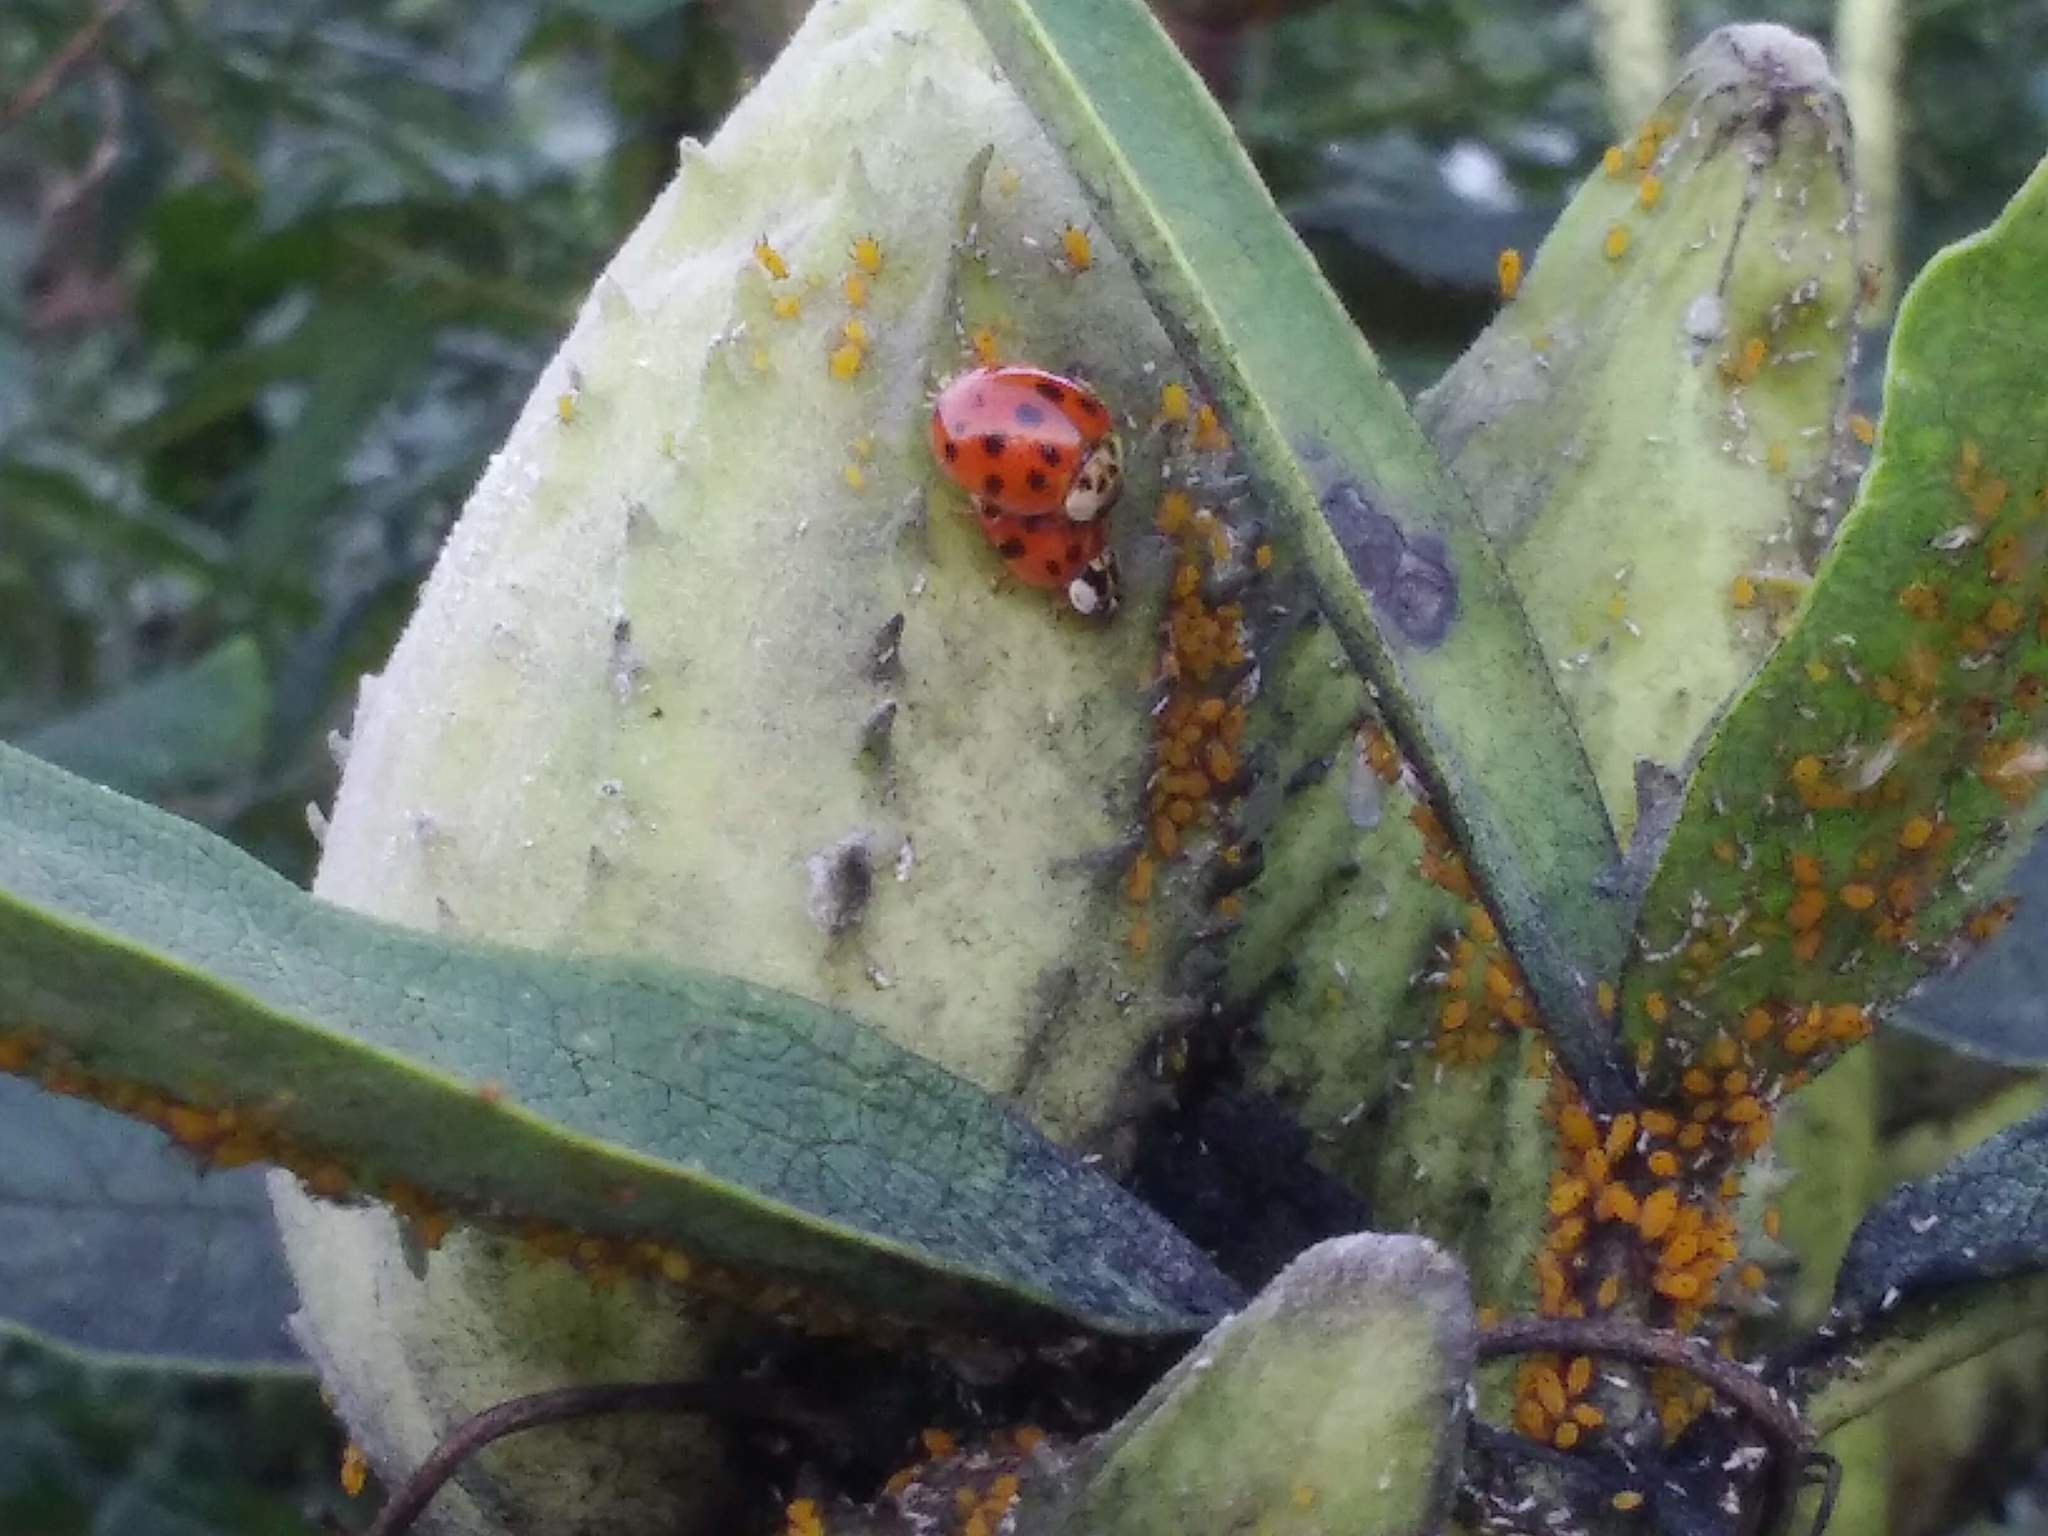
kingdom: Animalia
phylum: Arthropoda
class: Insecta
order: Coleoptera
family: Coccinellidae
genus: Harmonia
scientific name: Harmonia axyridis
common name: Harlequin ladybird
